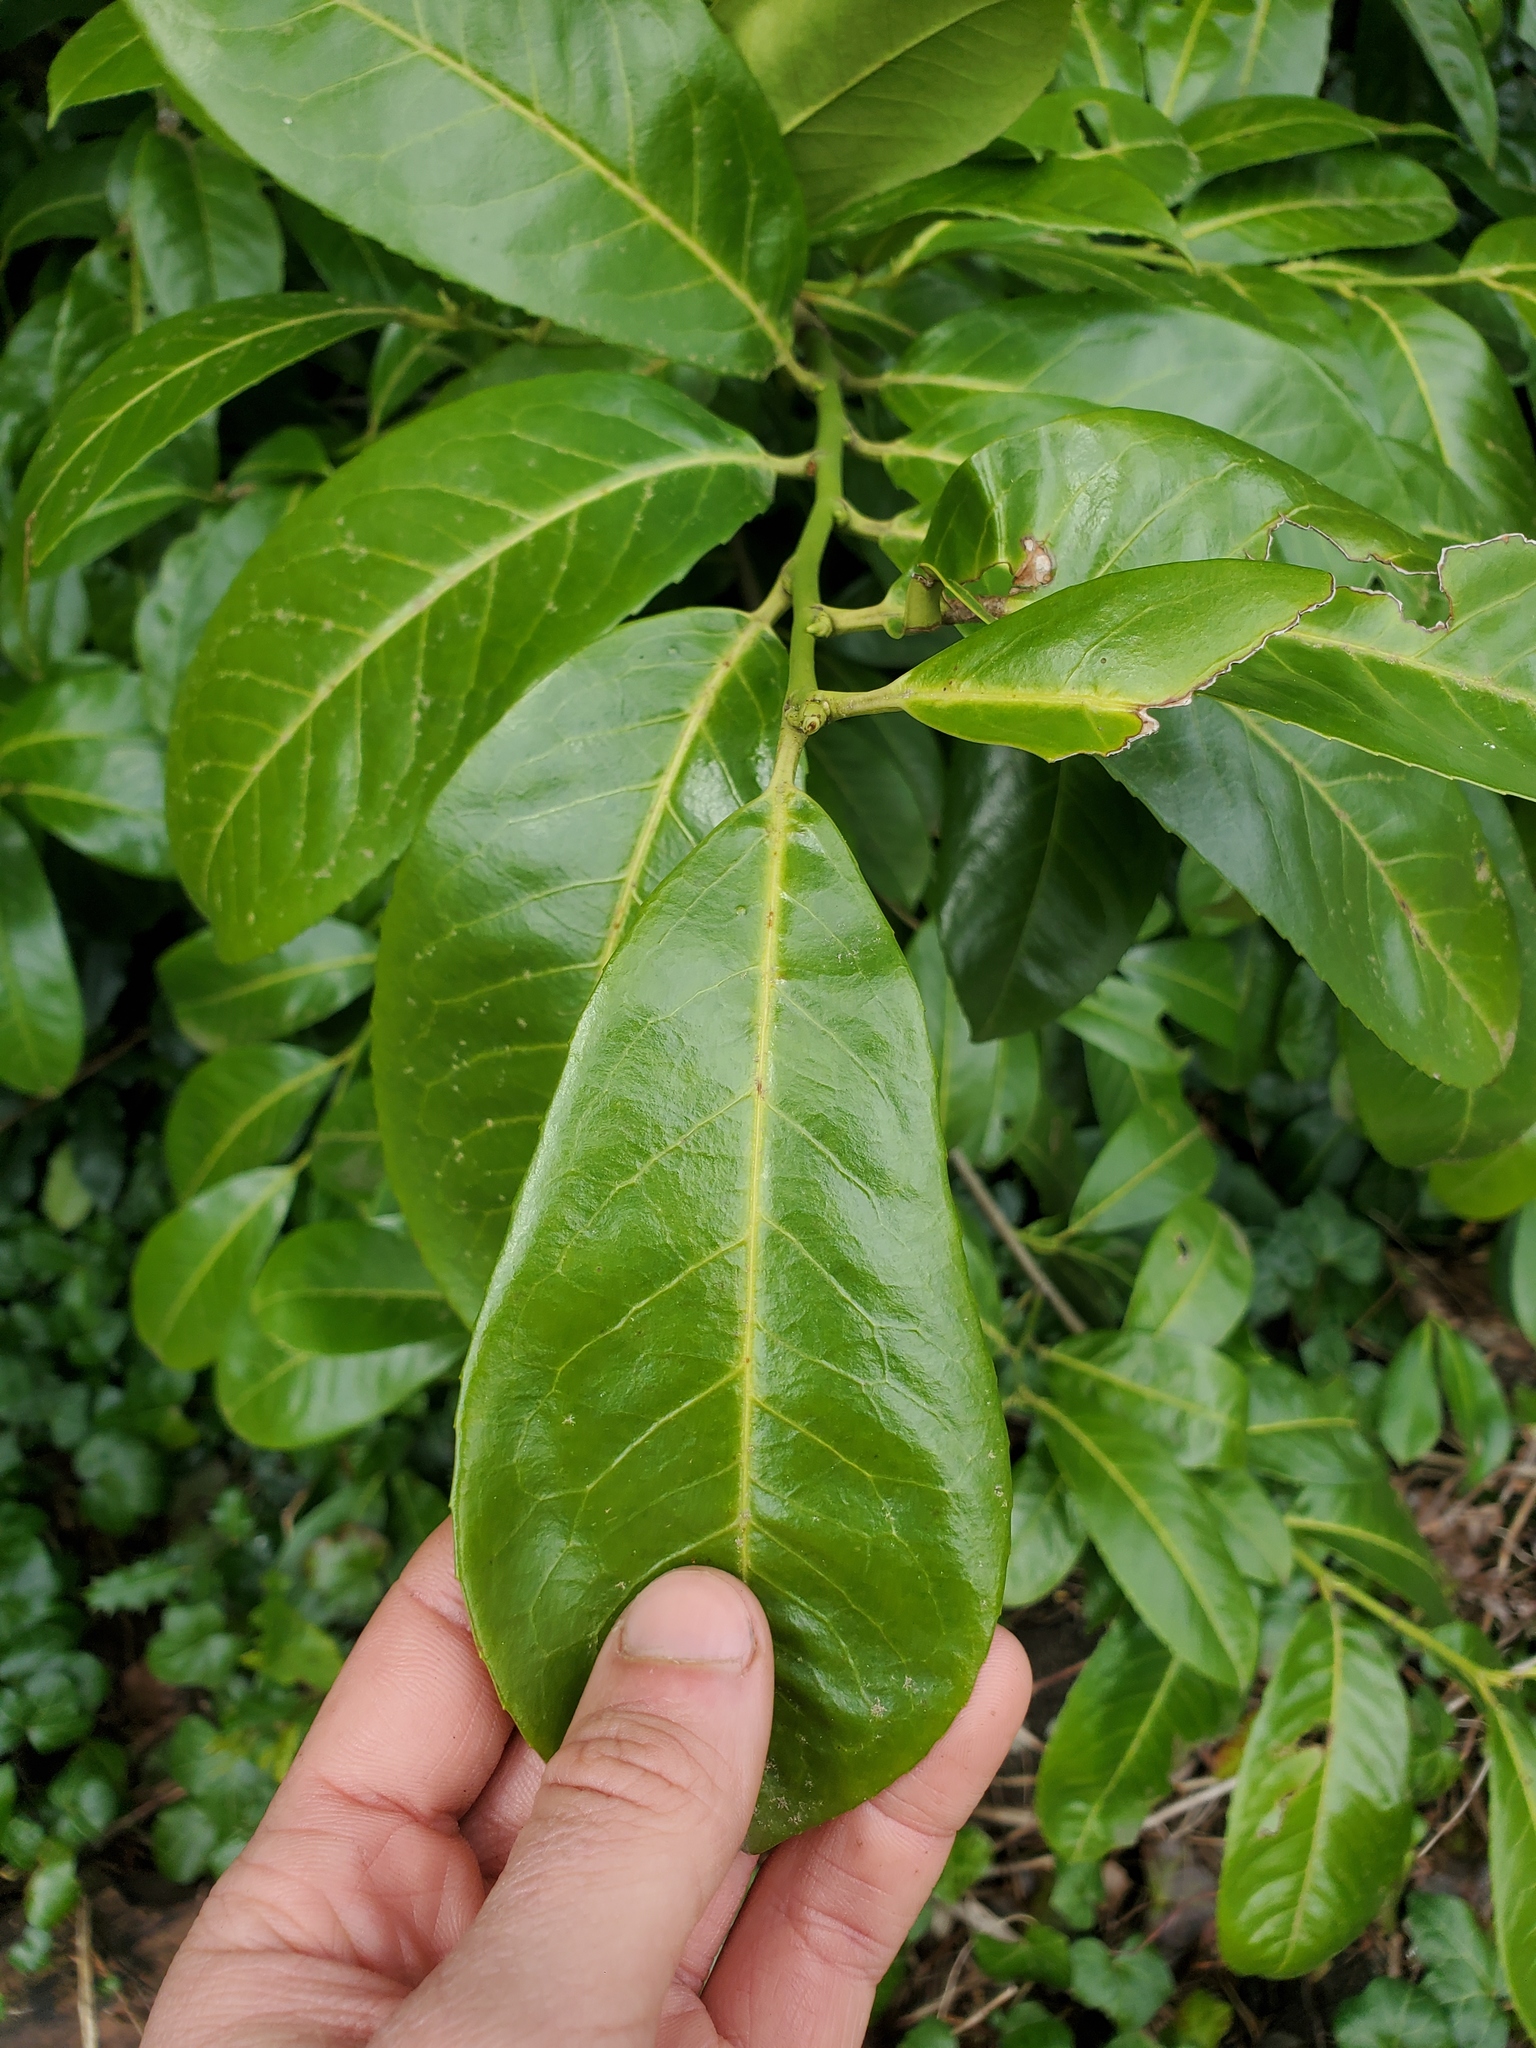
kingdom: Plantae
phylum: Tracheophyta
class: Magnoliopsida
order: Rosales
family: Rosaceae
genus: Prunus
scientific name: Prunus laurocerasus
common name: Cherry laurel
